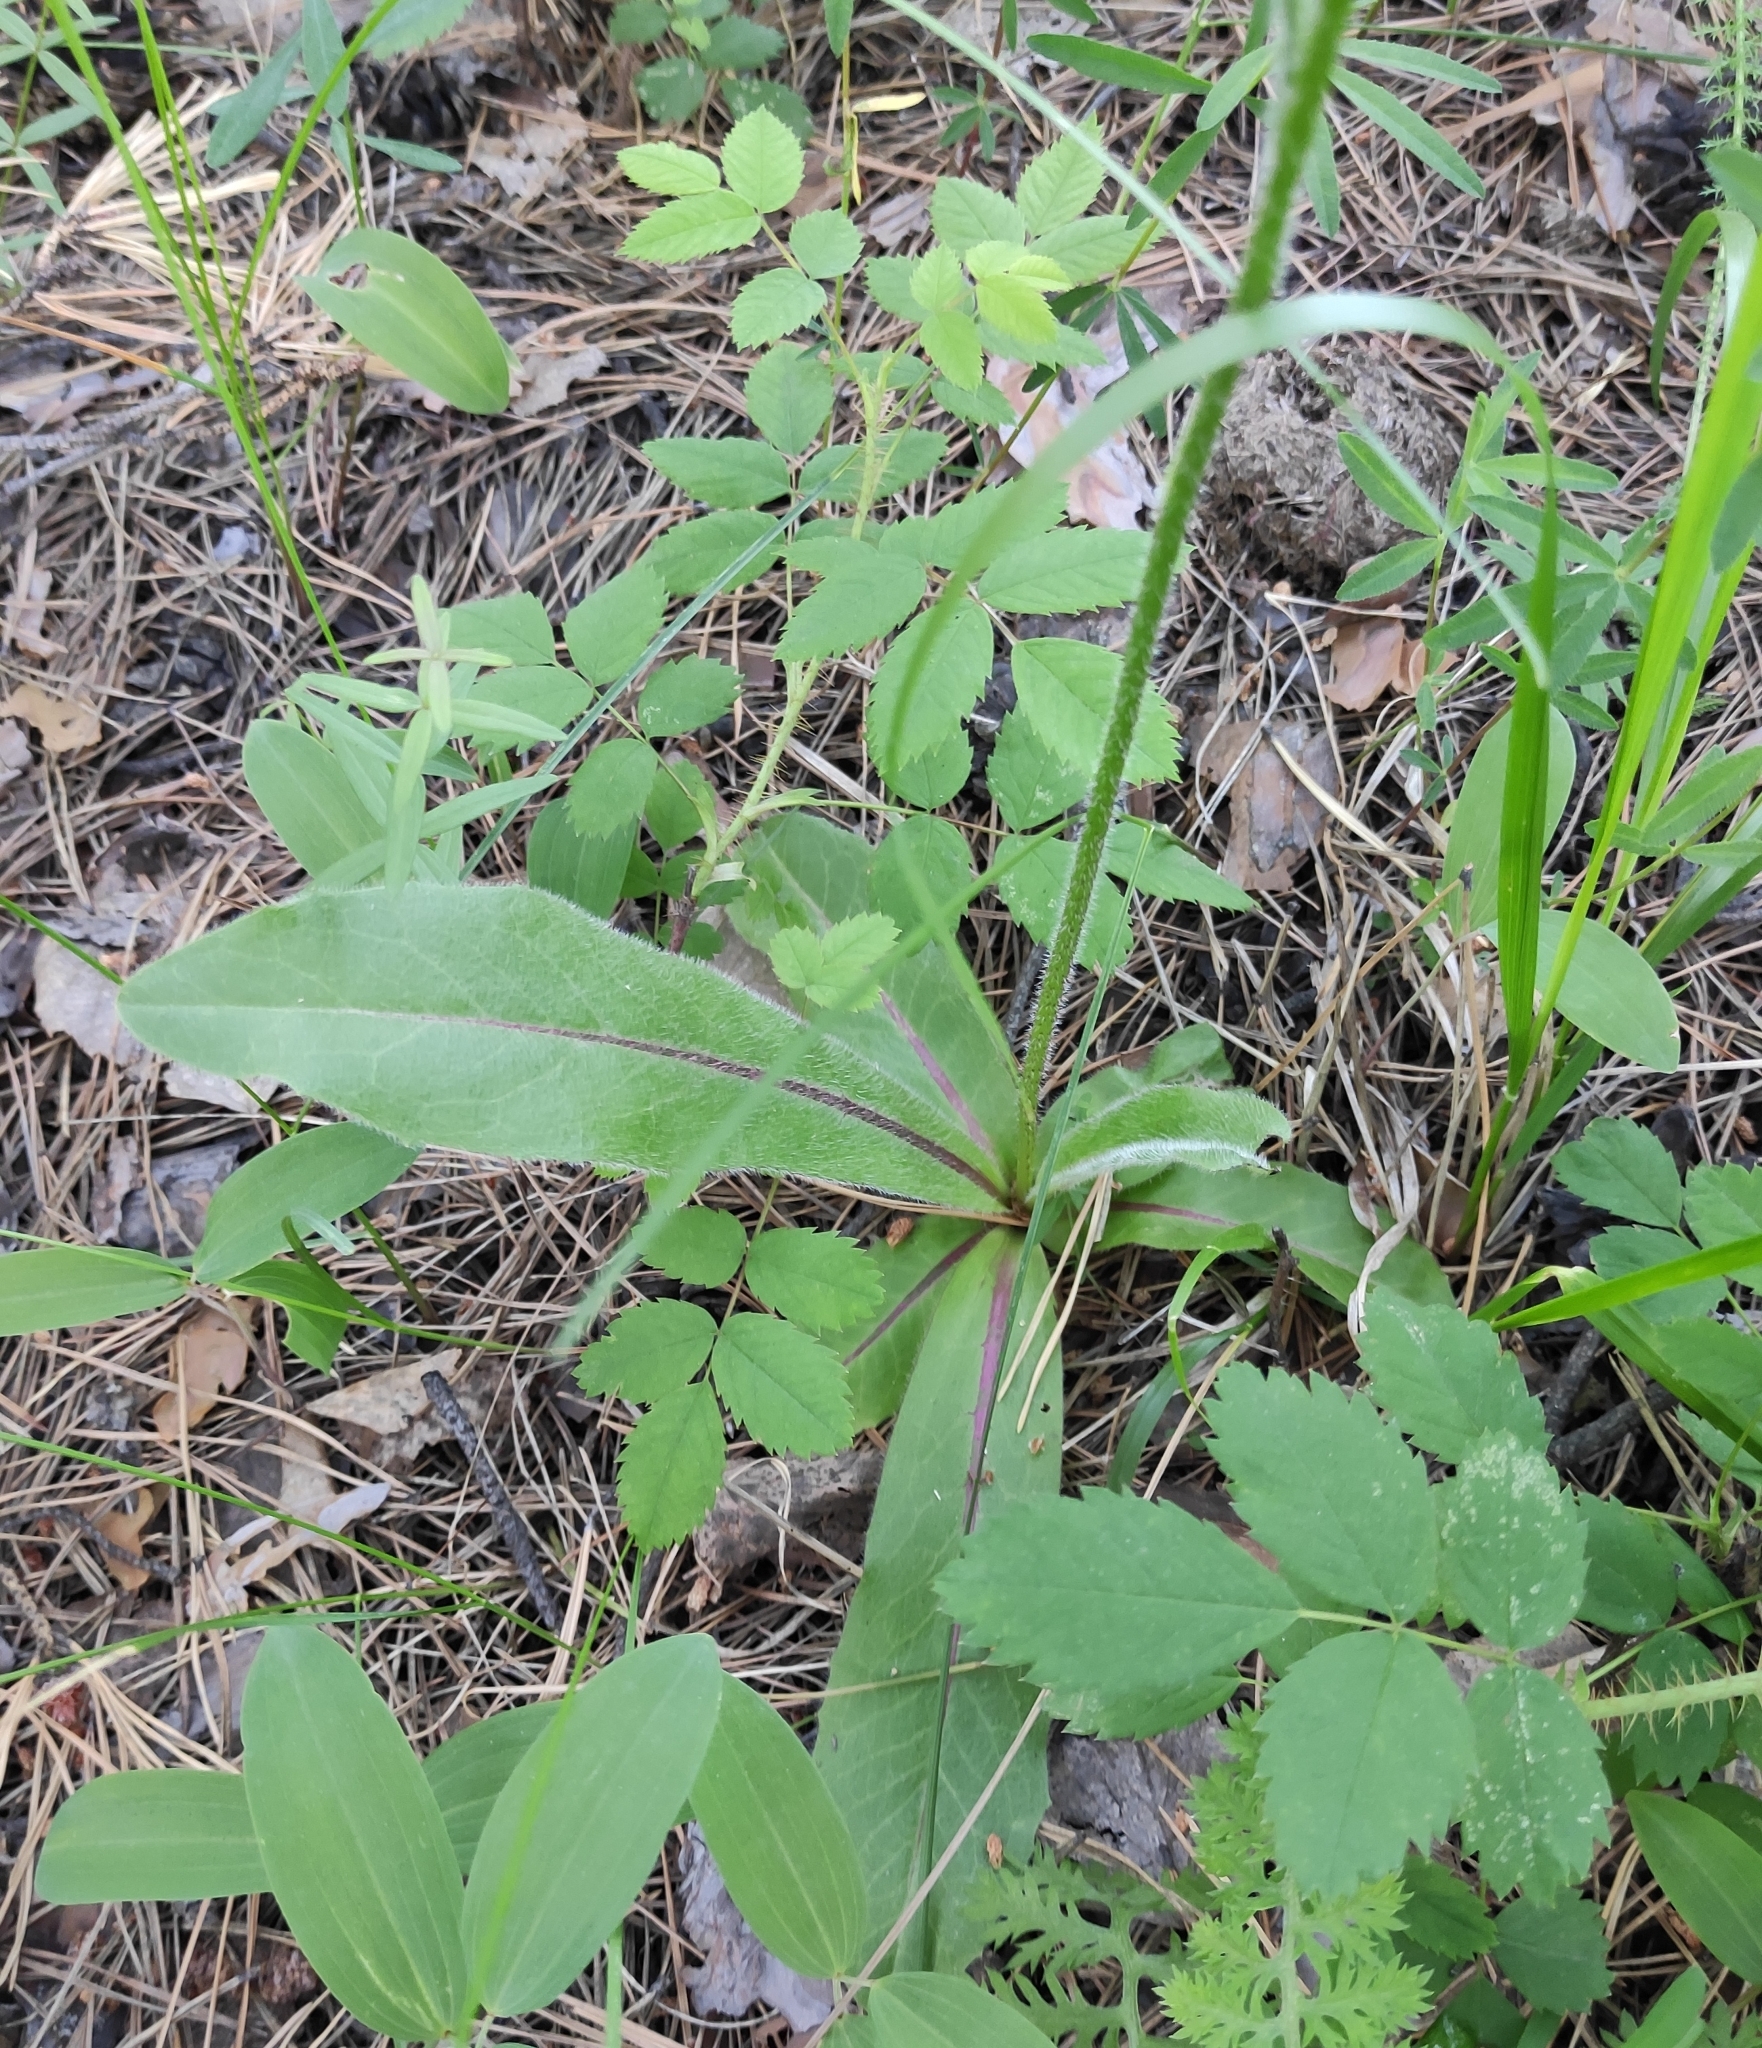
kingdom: Plantae
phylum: Tracheophyta
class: Magnoliopsida
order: Asterales
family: Asteraceae
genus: Trommsdorffia
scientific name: Trommsdorffia maculata
